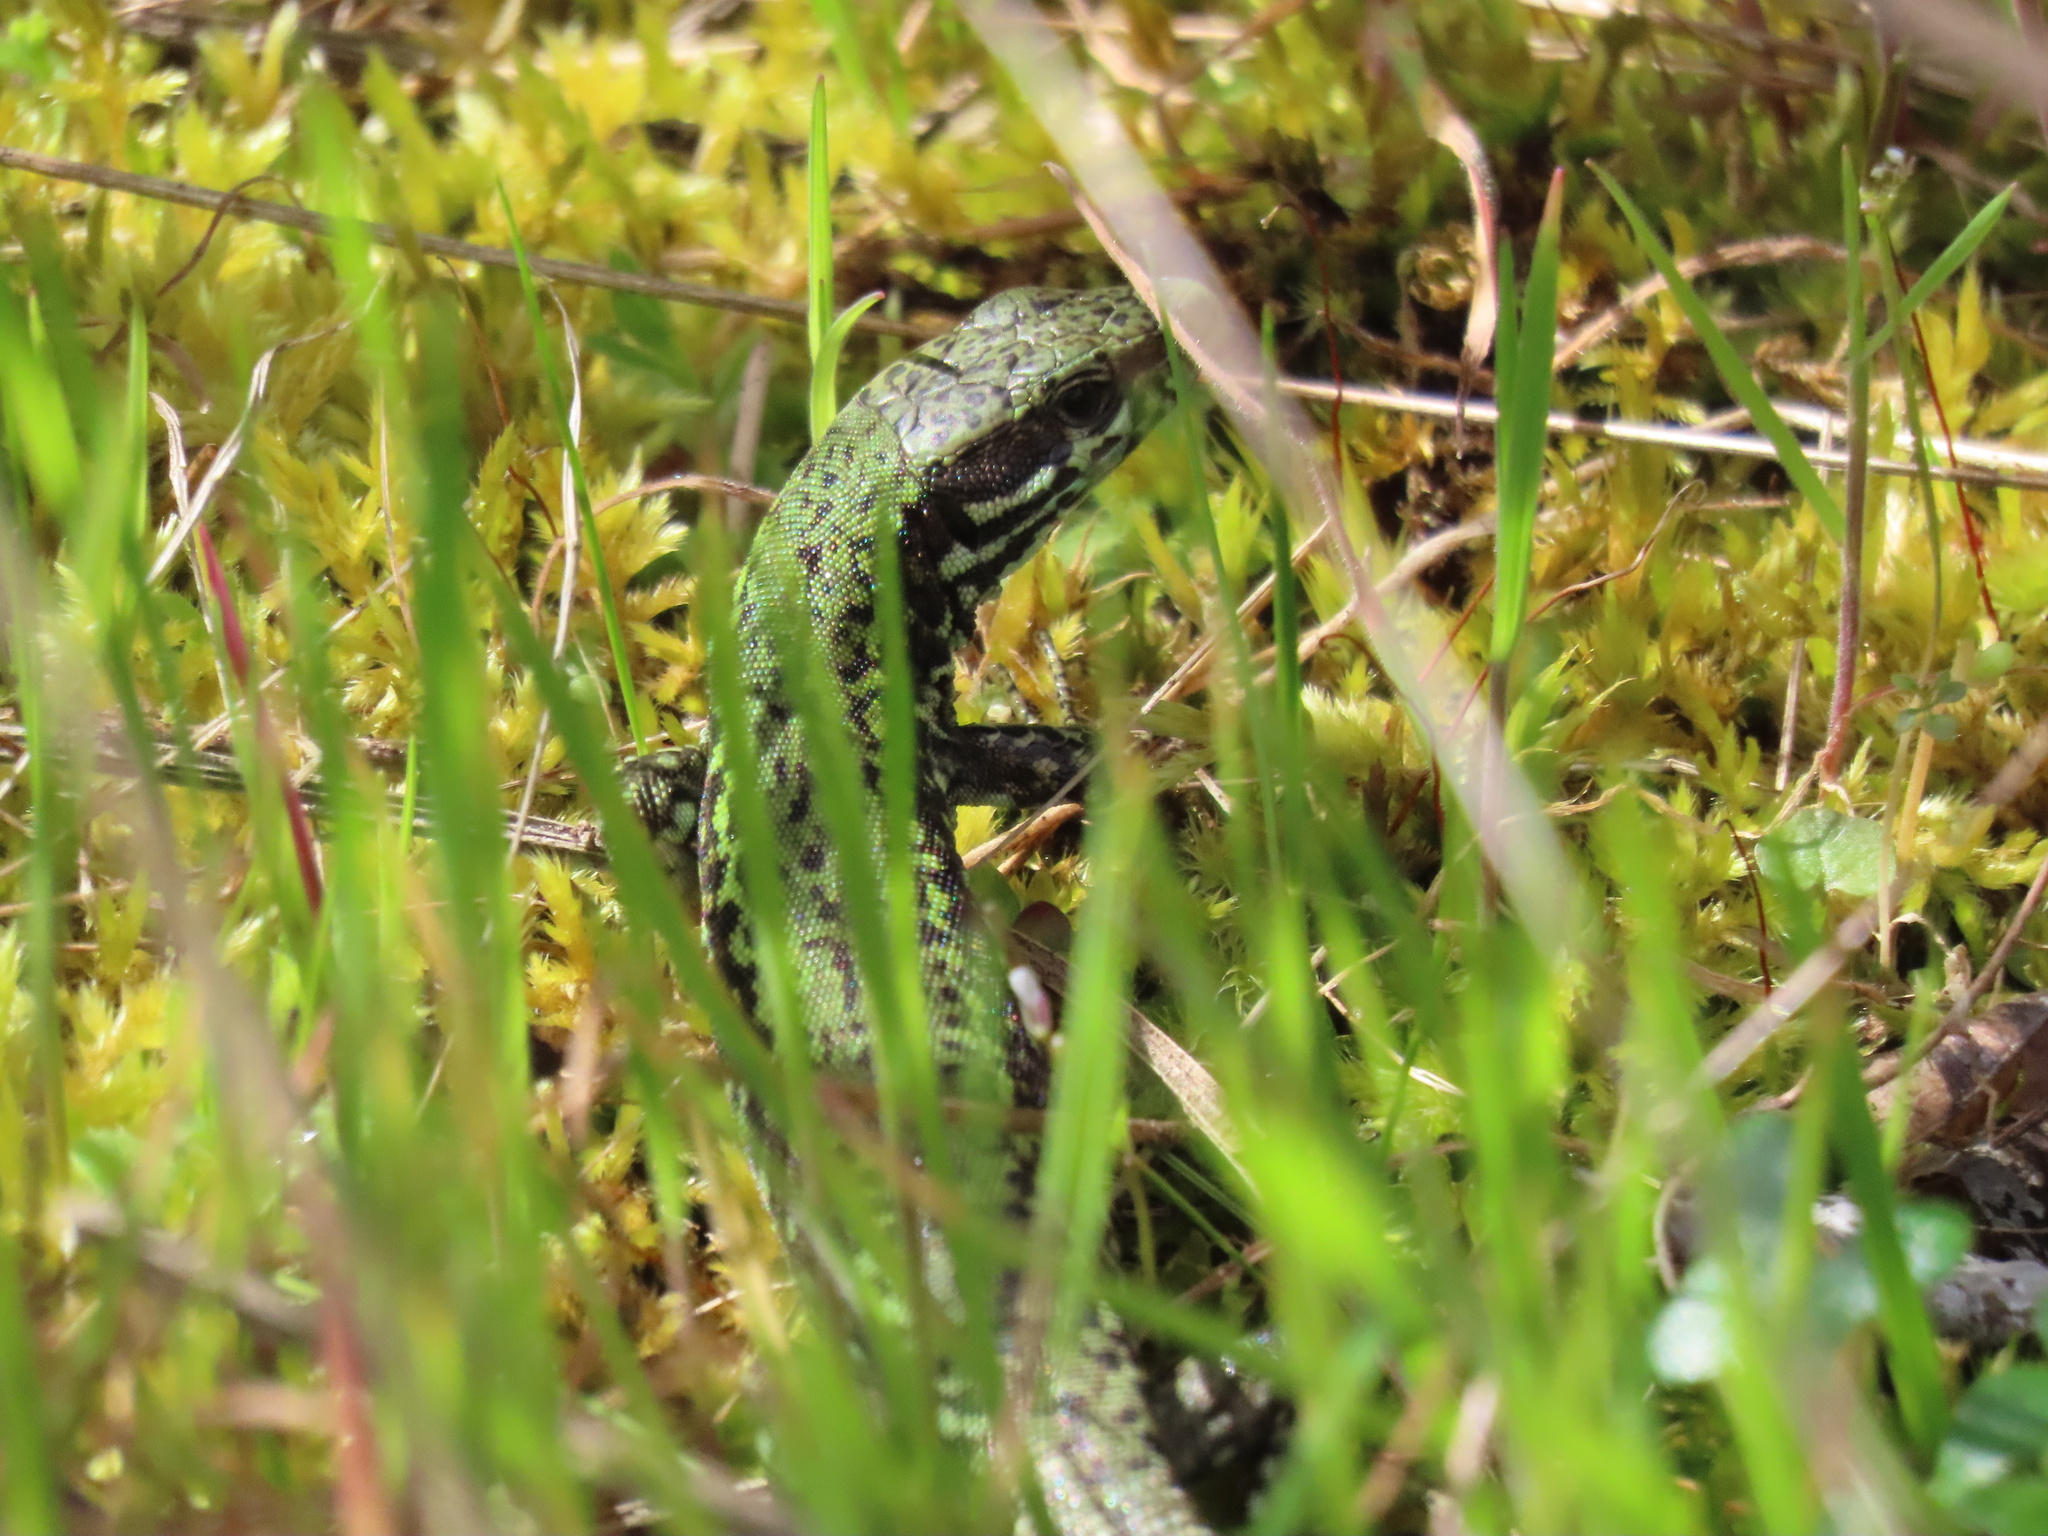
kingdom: Animalia
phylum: Chordata
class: Squamata
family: Lacertidae
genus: Podarcis
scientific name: Podarcis muralis
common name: Common wall lizard
